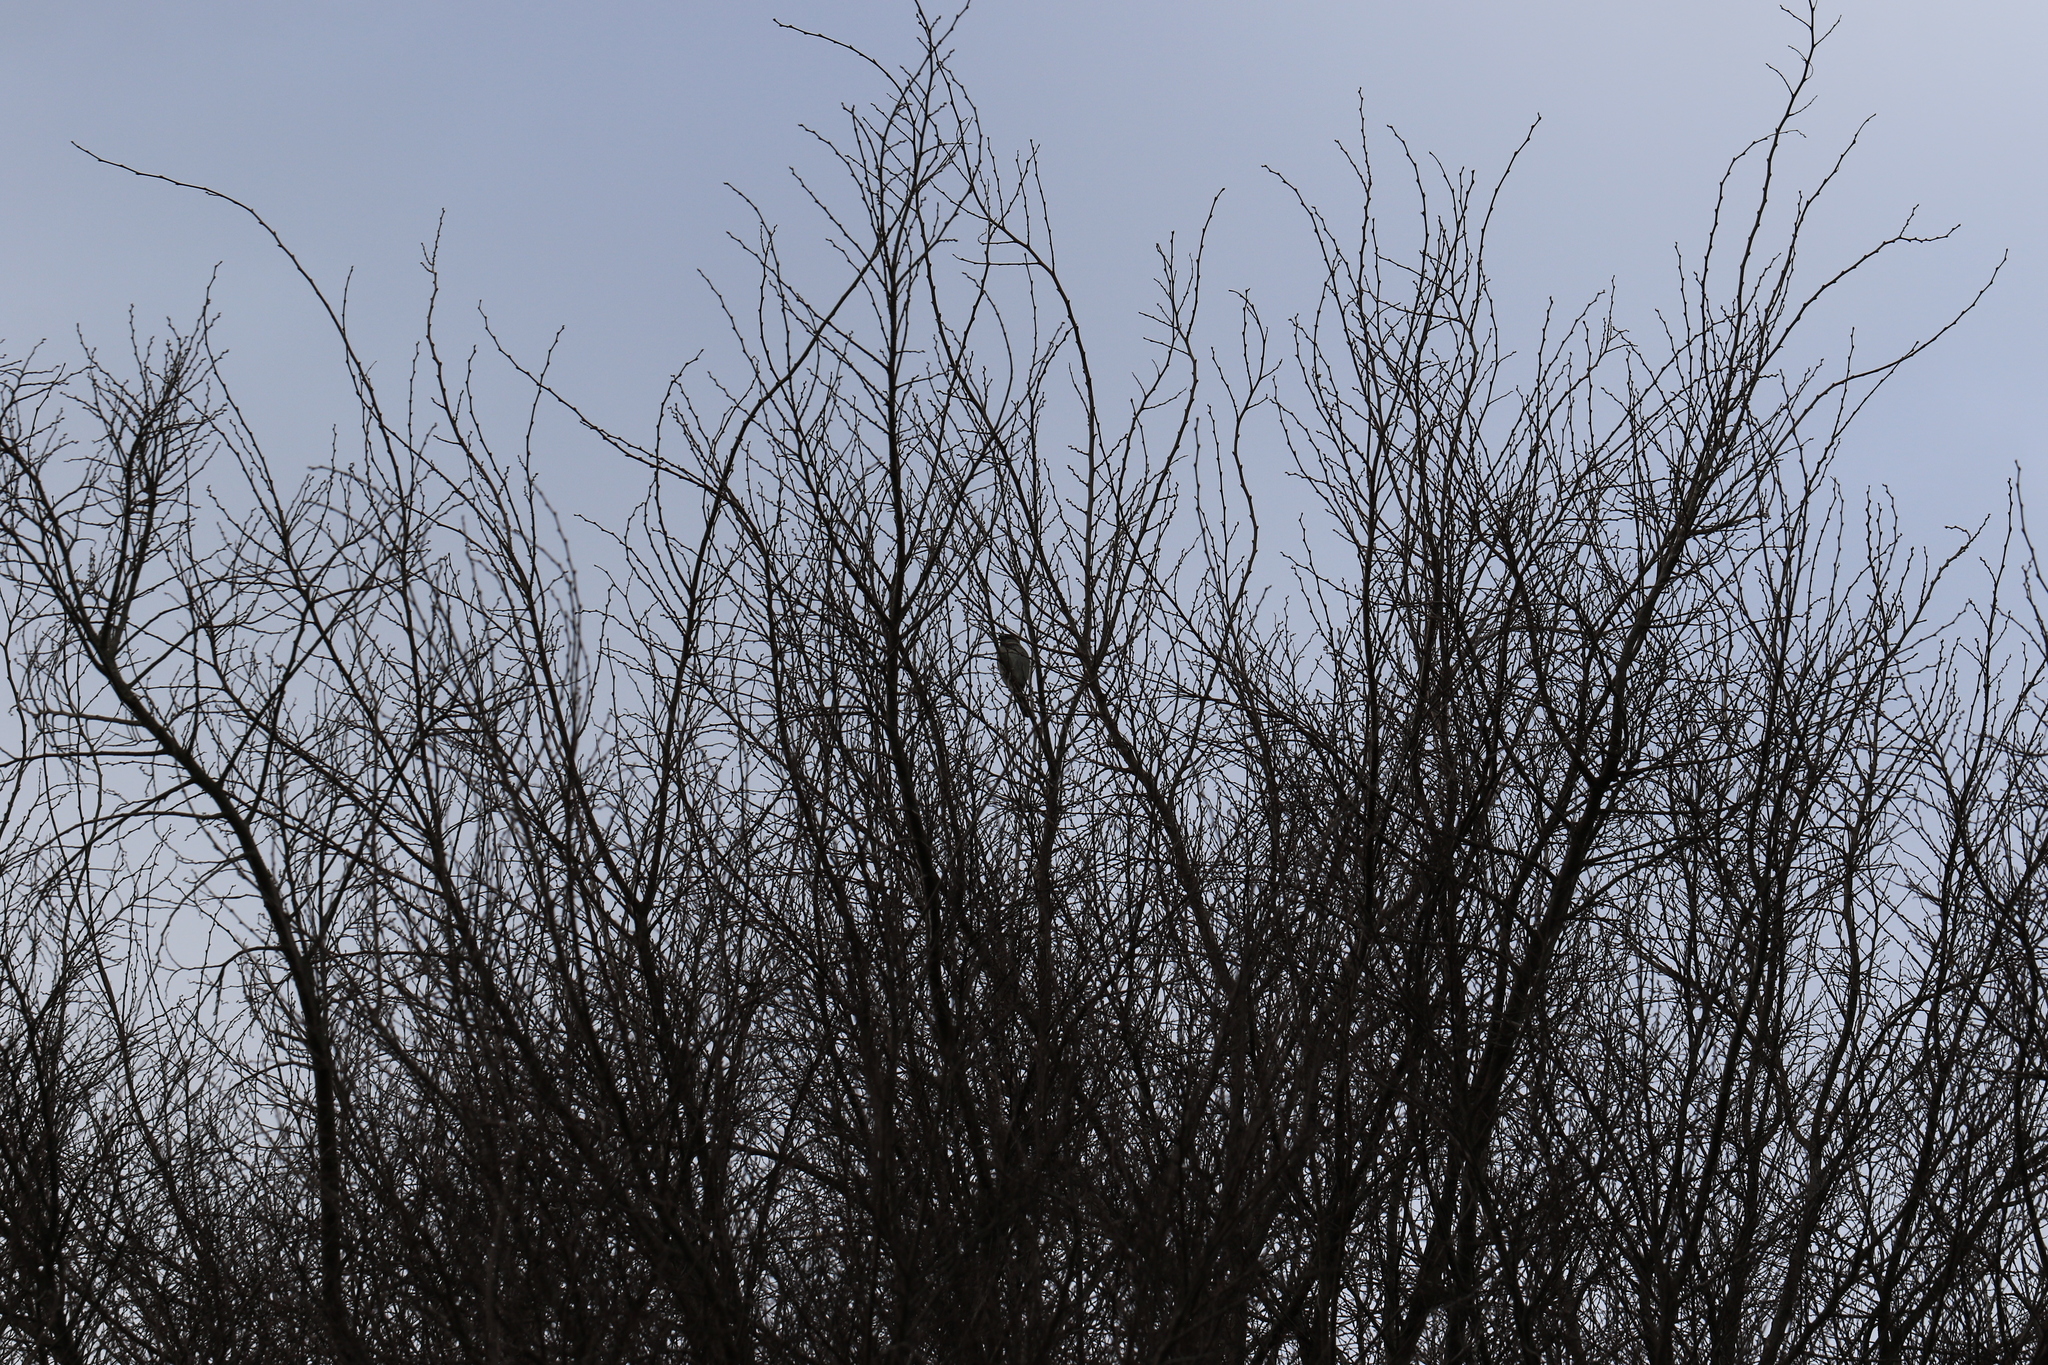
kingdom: Animalia
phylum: Chordata
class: Aves
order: Passeriformes
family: Passeridae
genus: Passer
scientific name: Passer domesticus
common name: House sparrow
